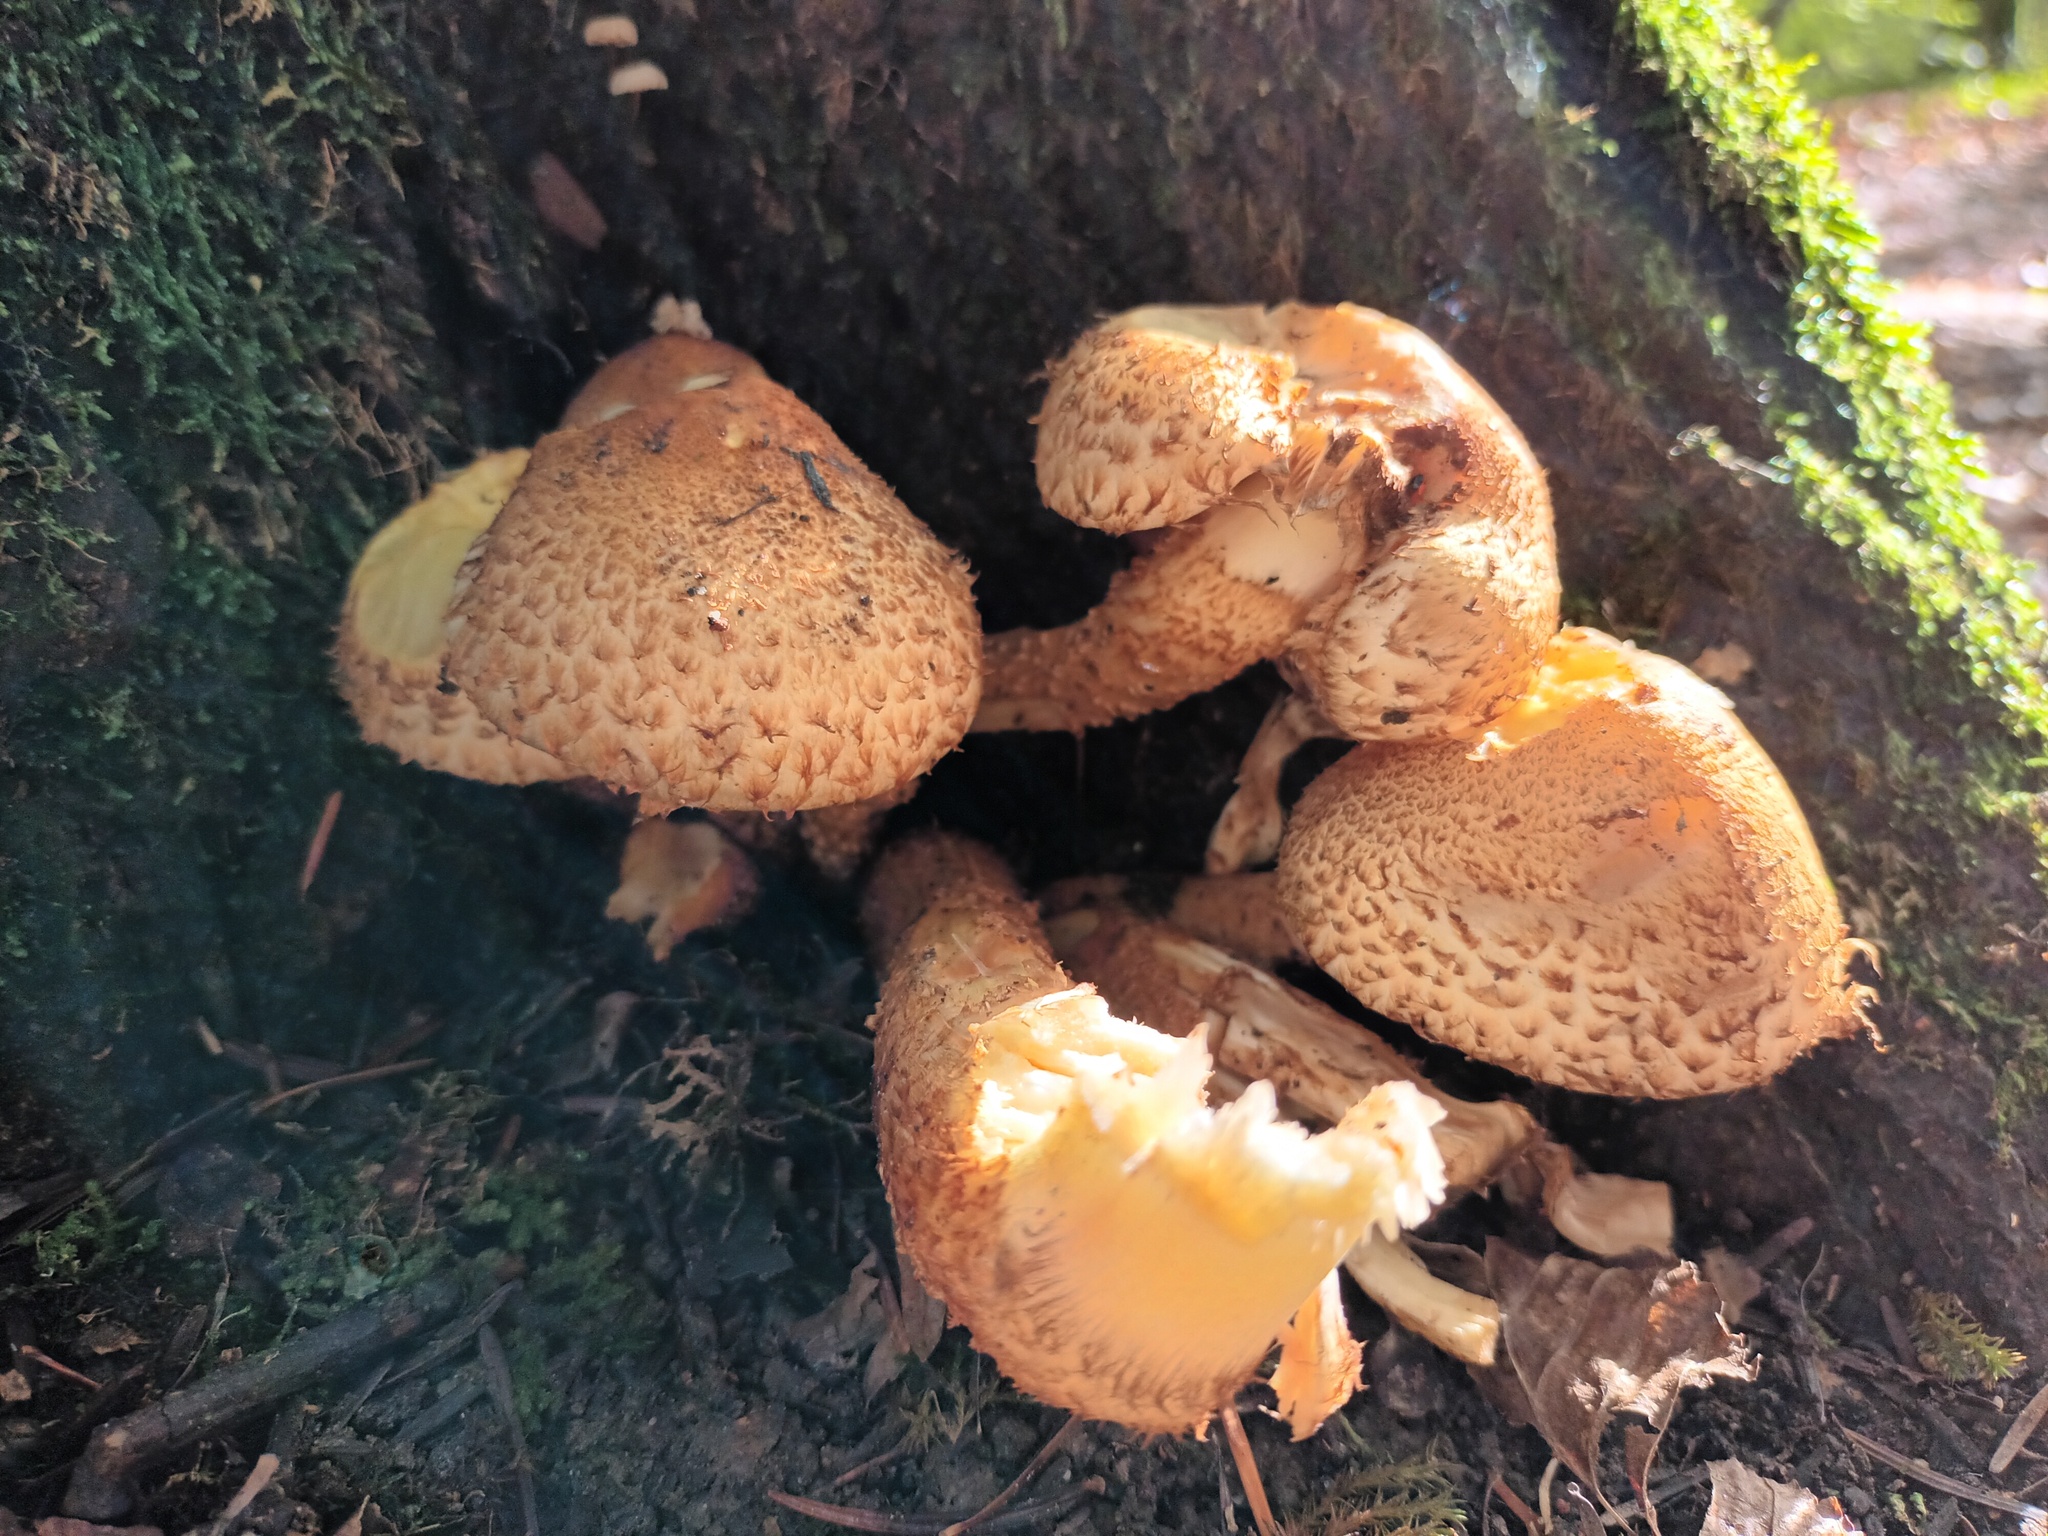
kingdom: Fungi
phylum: Basidiomycota
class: Agaricomycetes
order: Agaricales
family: Strophariaceae
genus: Pholiota
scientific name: Pholiota squarrosa
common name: Shaggy pholiota
